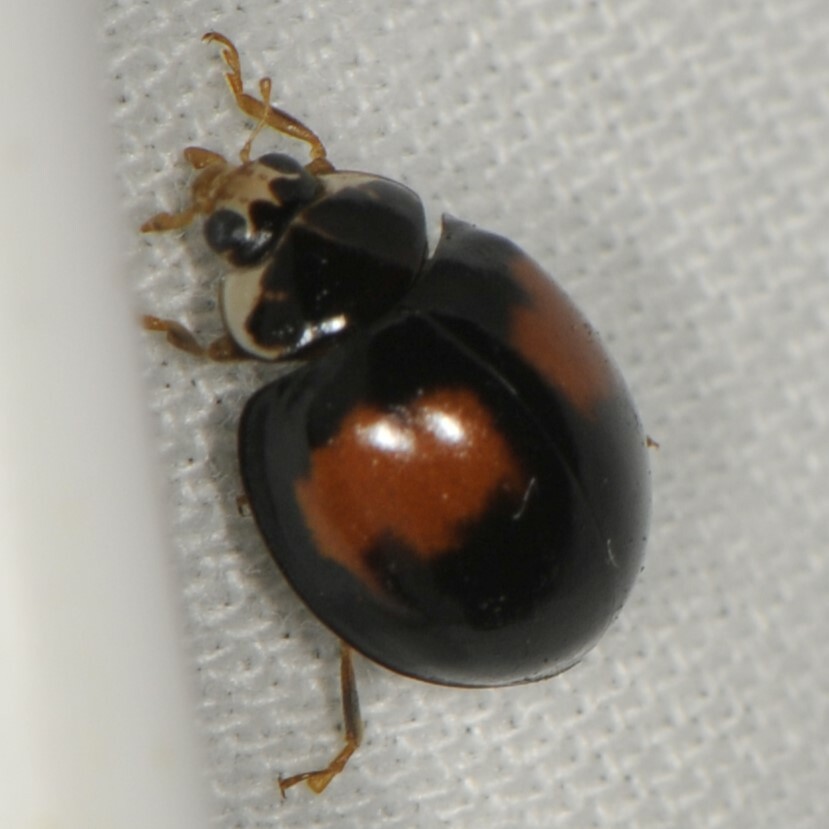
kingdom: Animalia
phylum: Arthropoda
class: Insecta
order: Coleoptera
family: Coccinellidae
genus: Olla
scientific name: Olla v-nigrum
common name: Ashy gray lady beetle
